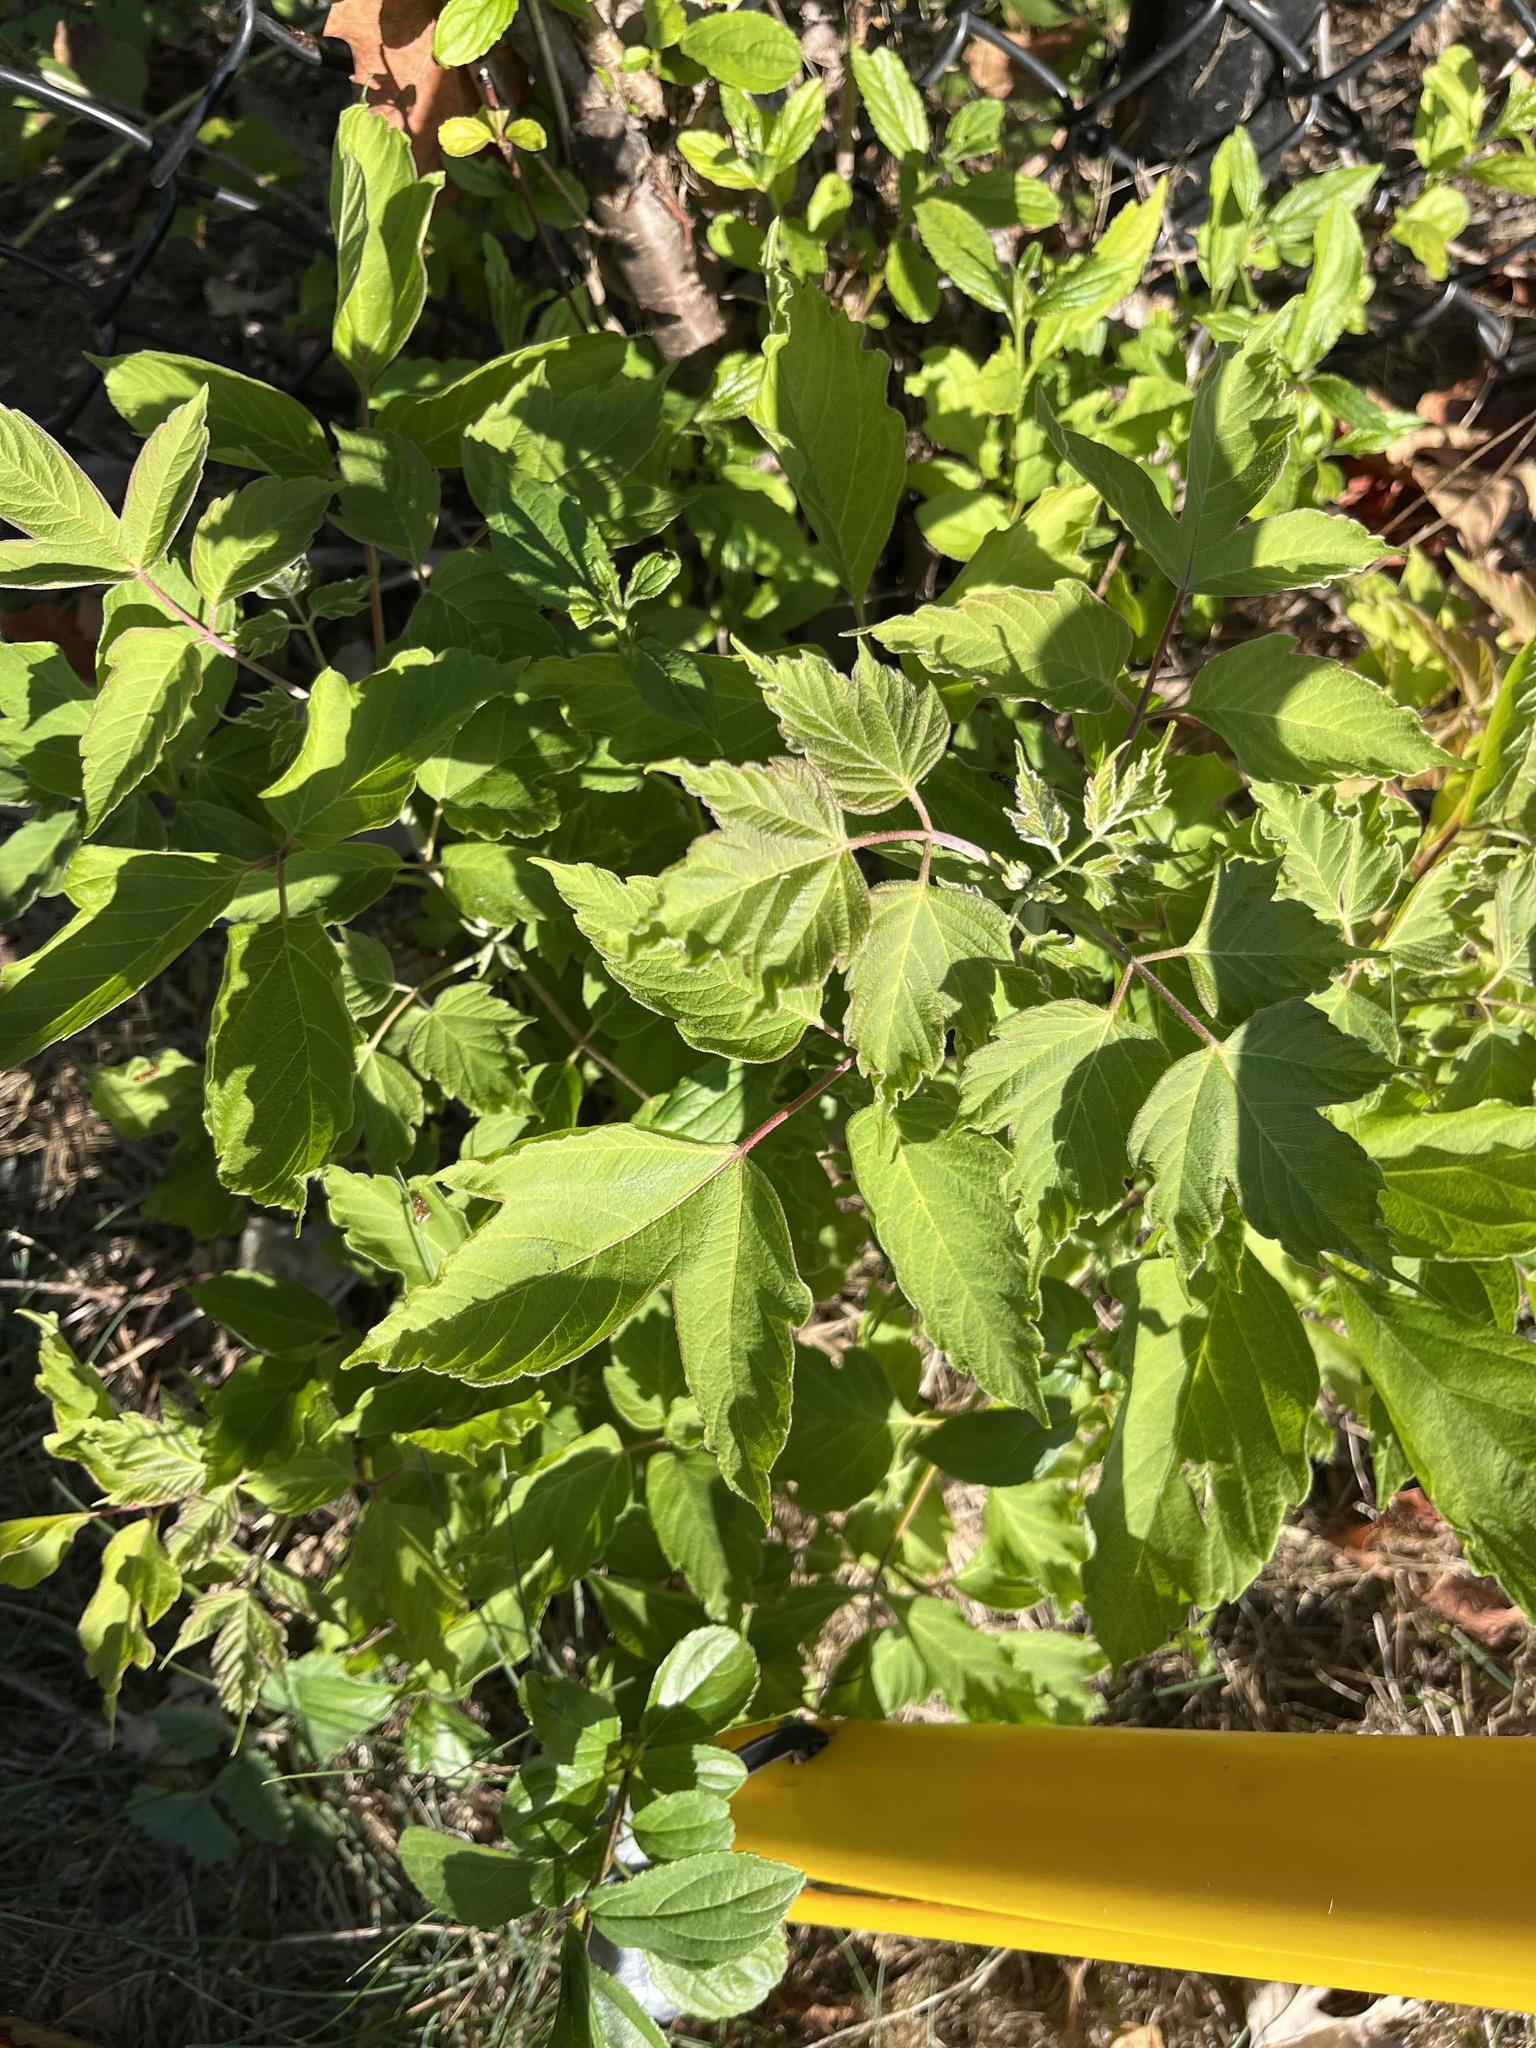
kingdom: Plantae
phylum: Tracheophyta
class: Magnoliopsida
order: Sapindales
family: Sapindaceae
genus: Acer
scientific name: Acer negundo
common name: Ashleaf maple
